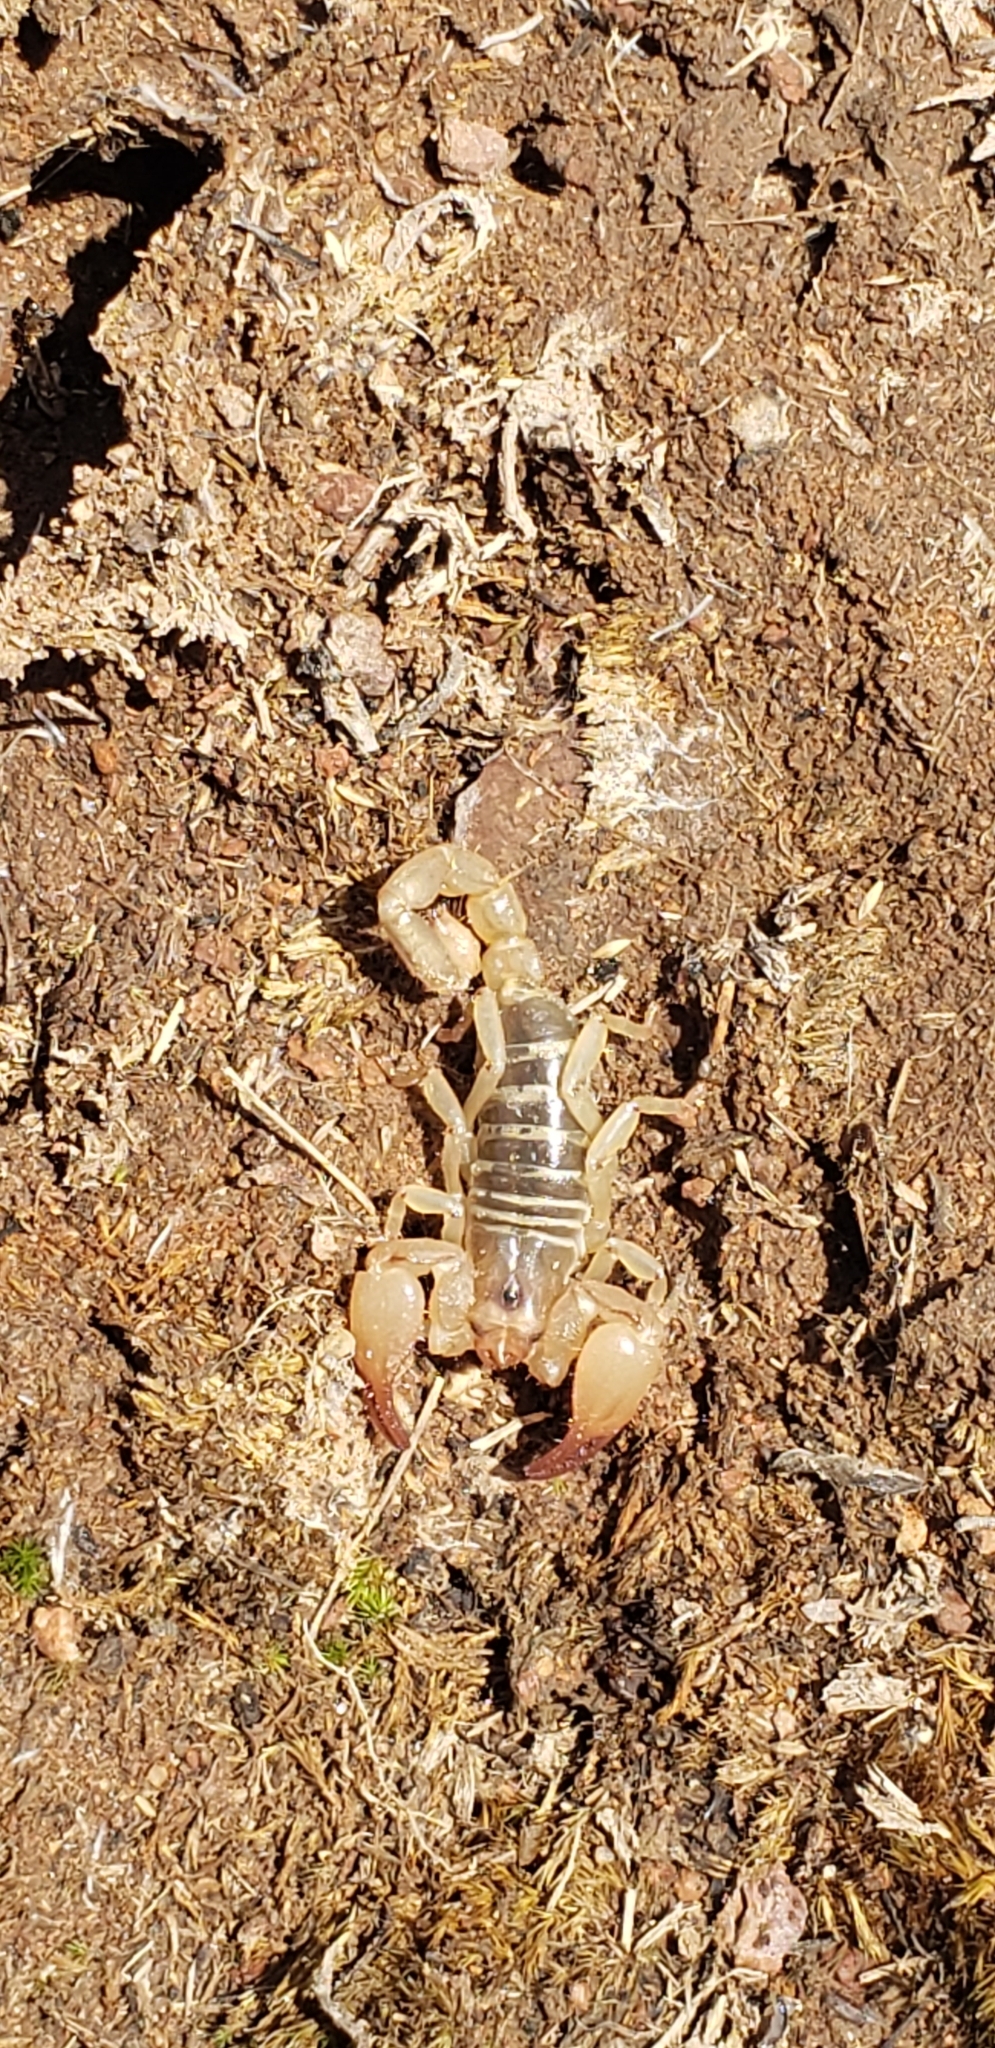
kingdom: Animalia
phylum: Arthropoda
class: Arachnida
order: Scorpiones
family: Diplocentridae
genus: Diplocentrus
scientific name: Diplocentrus zacatecanus
